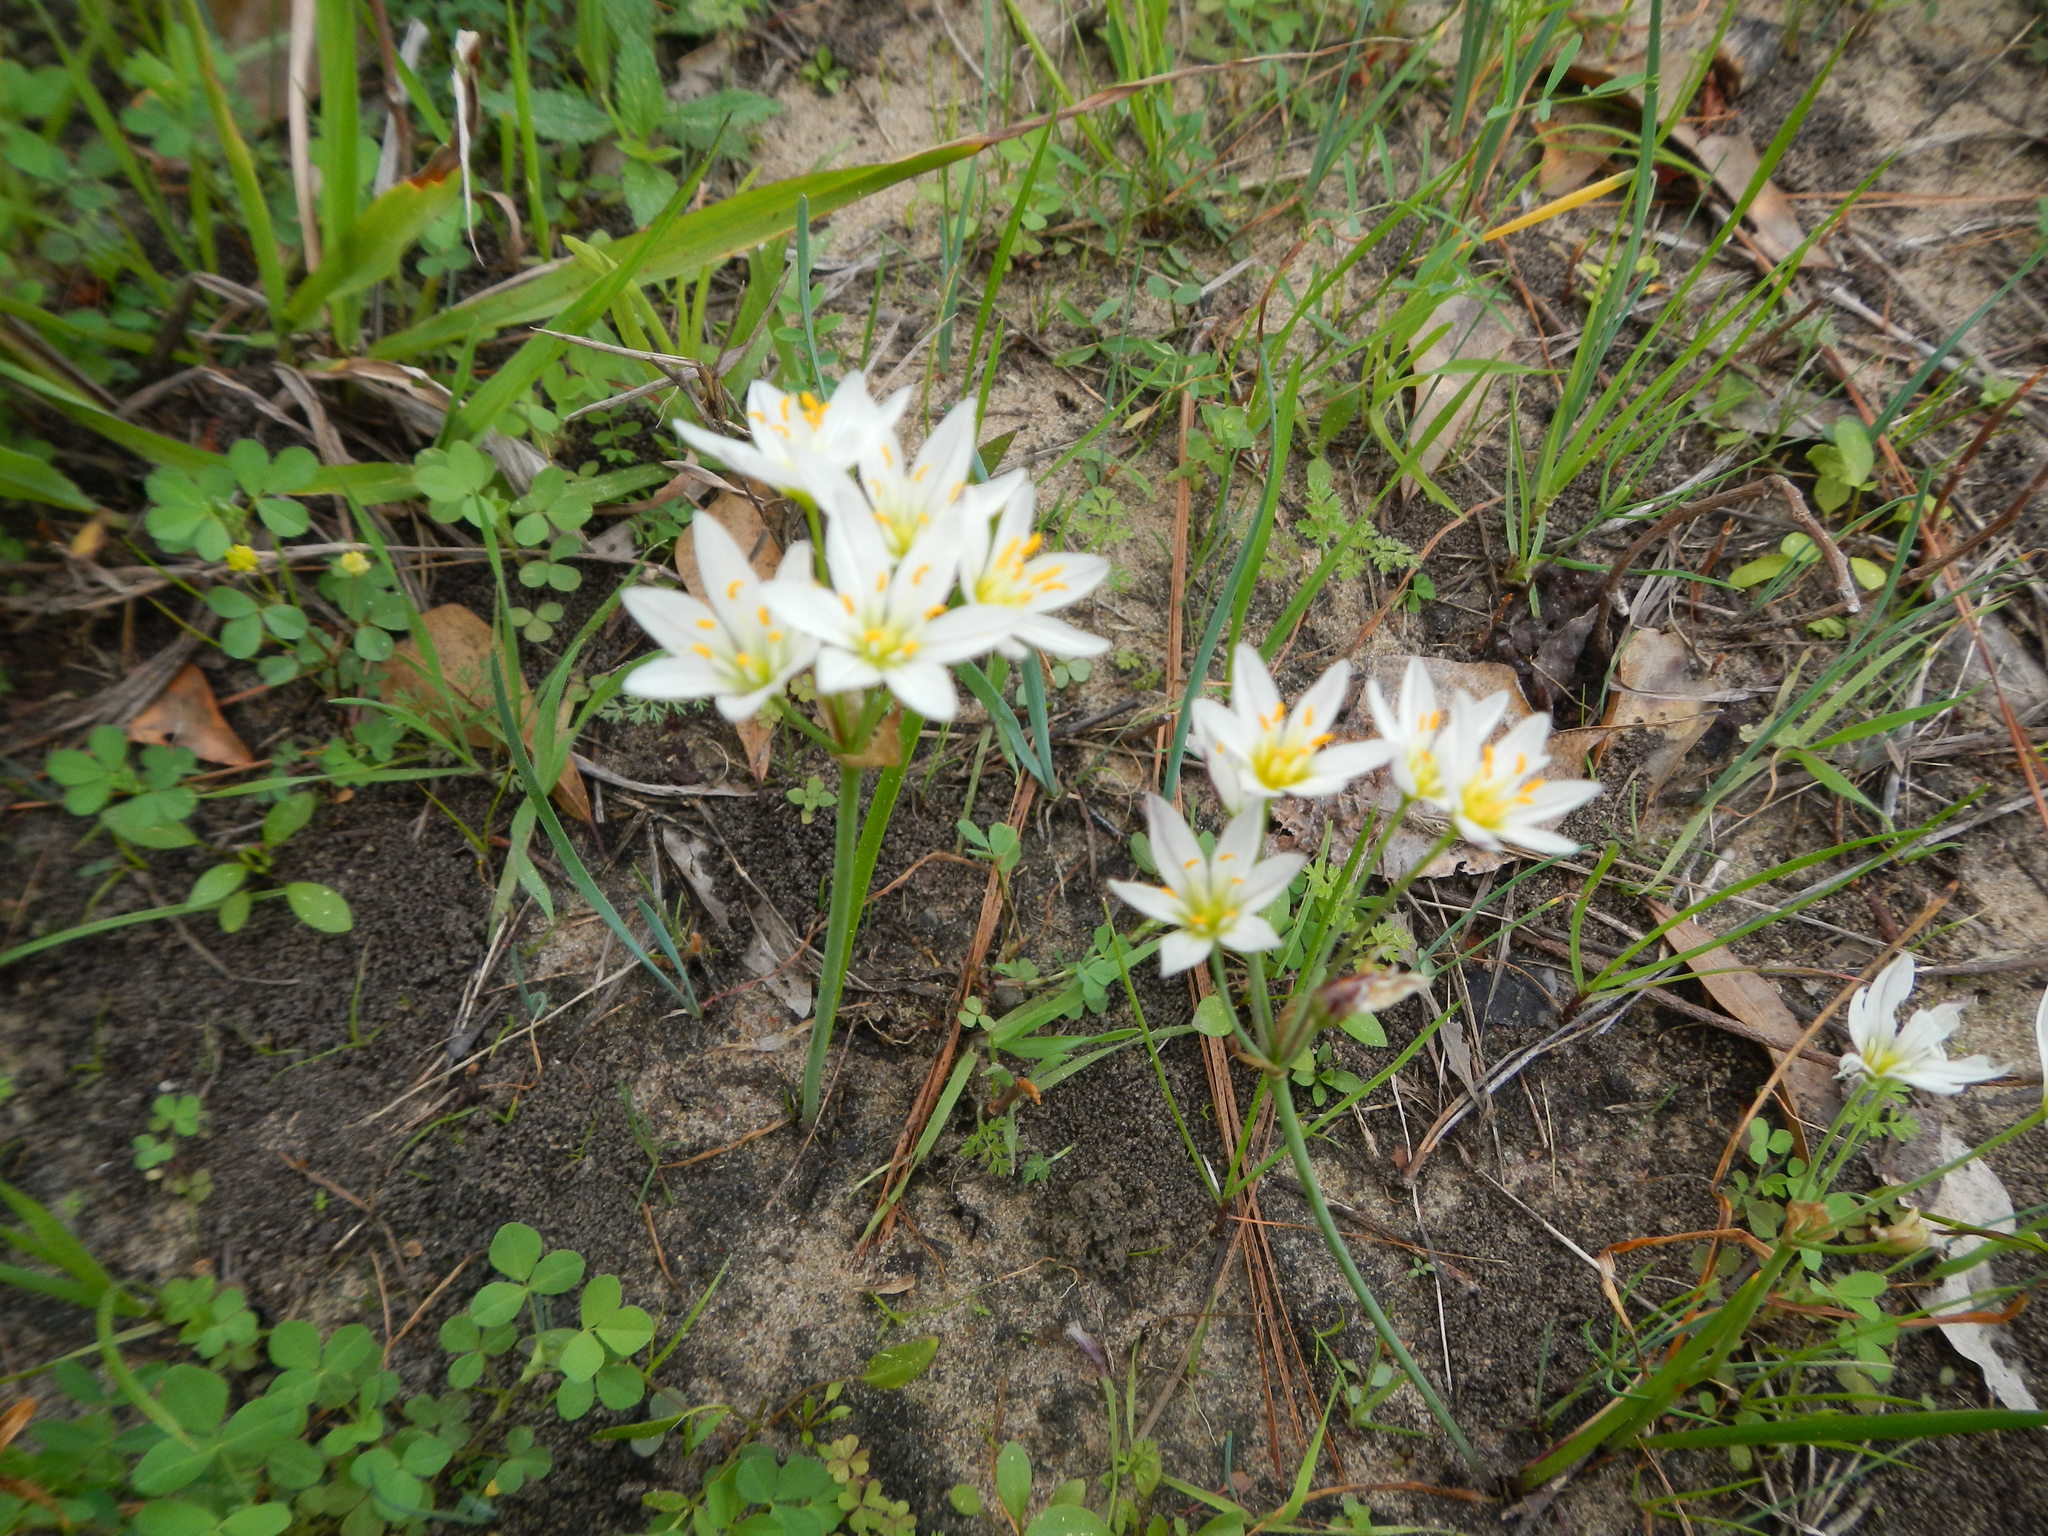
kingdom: Plantae
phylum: Tracheophyta
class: Liliopsida
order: Asparagales
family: Amaryllidaceae
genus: Nothoscordum
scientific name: Nothoscordum bivalve
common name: Crow-poison
